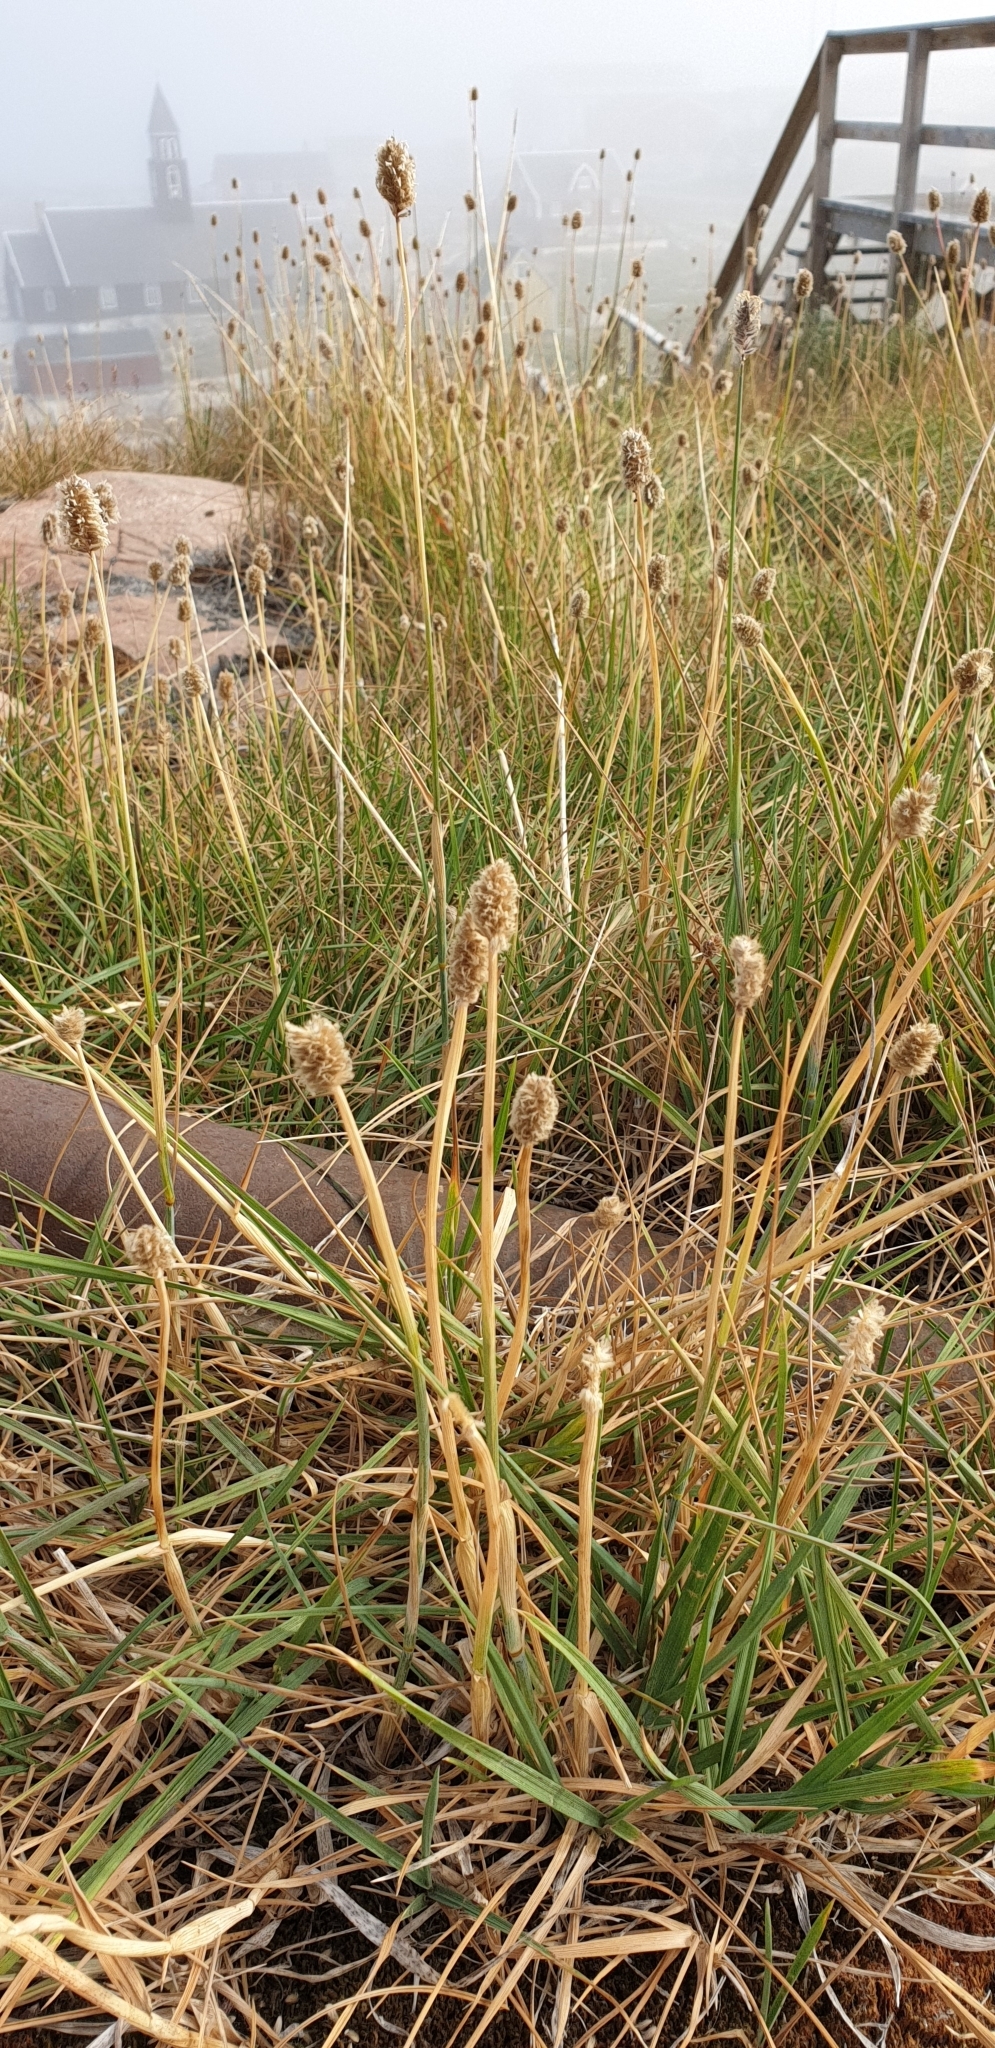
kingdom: Plantae
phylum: Tracheophyta
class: Liliopsida
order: Poales
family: Poaceae
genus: Alopecurus
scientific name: Alopecurus magellanicus
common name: Alpine foxtail
